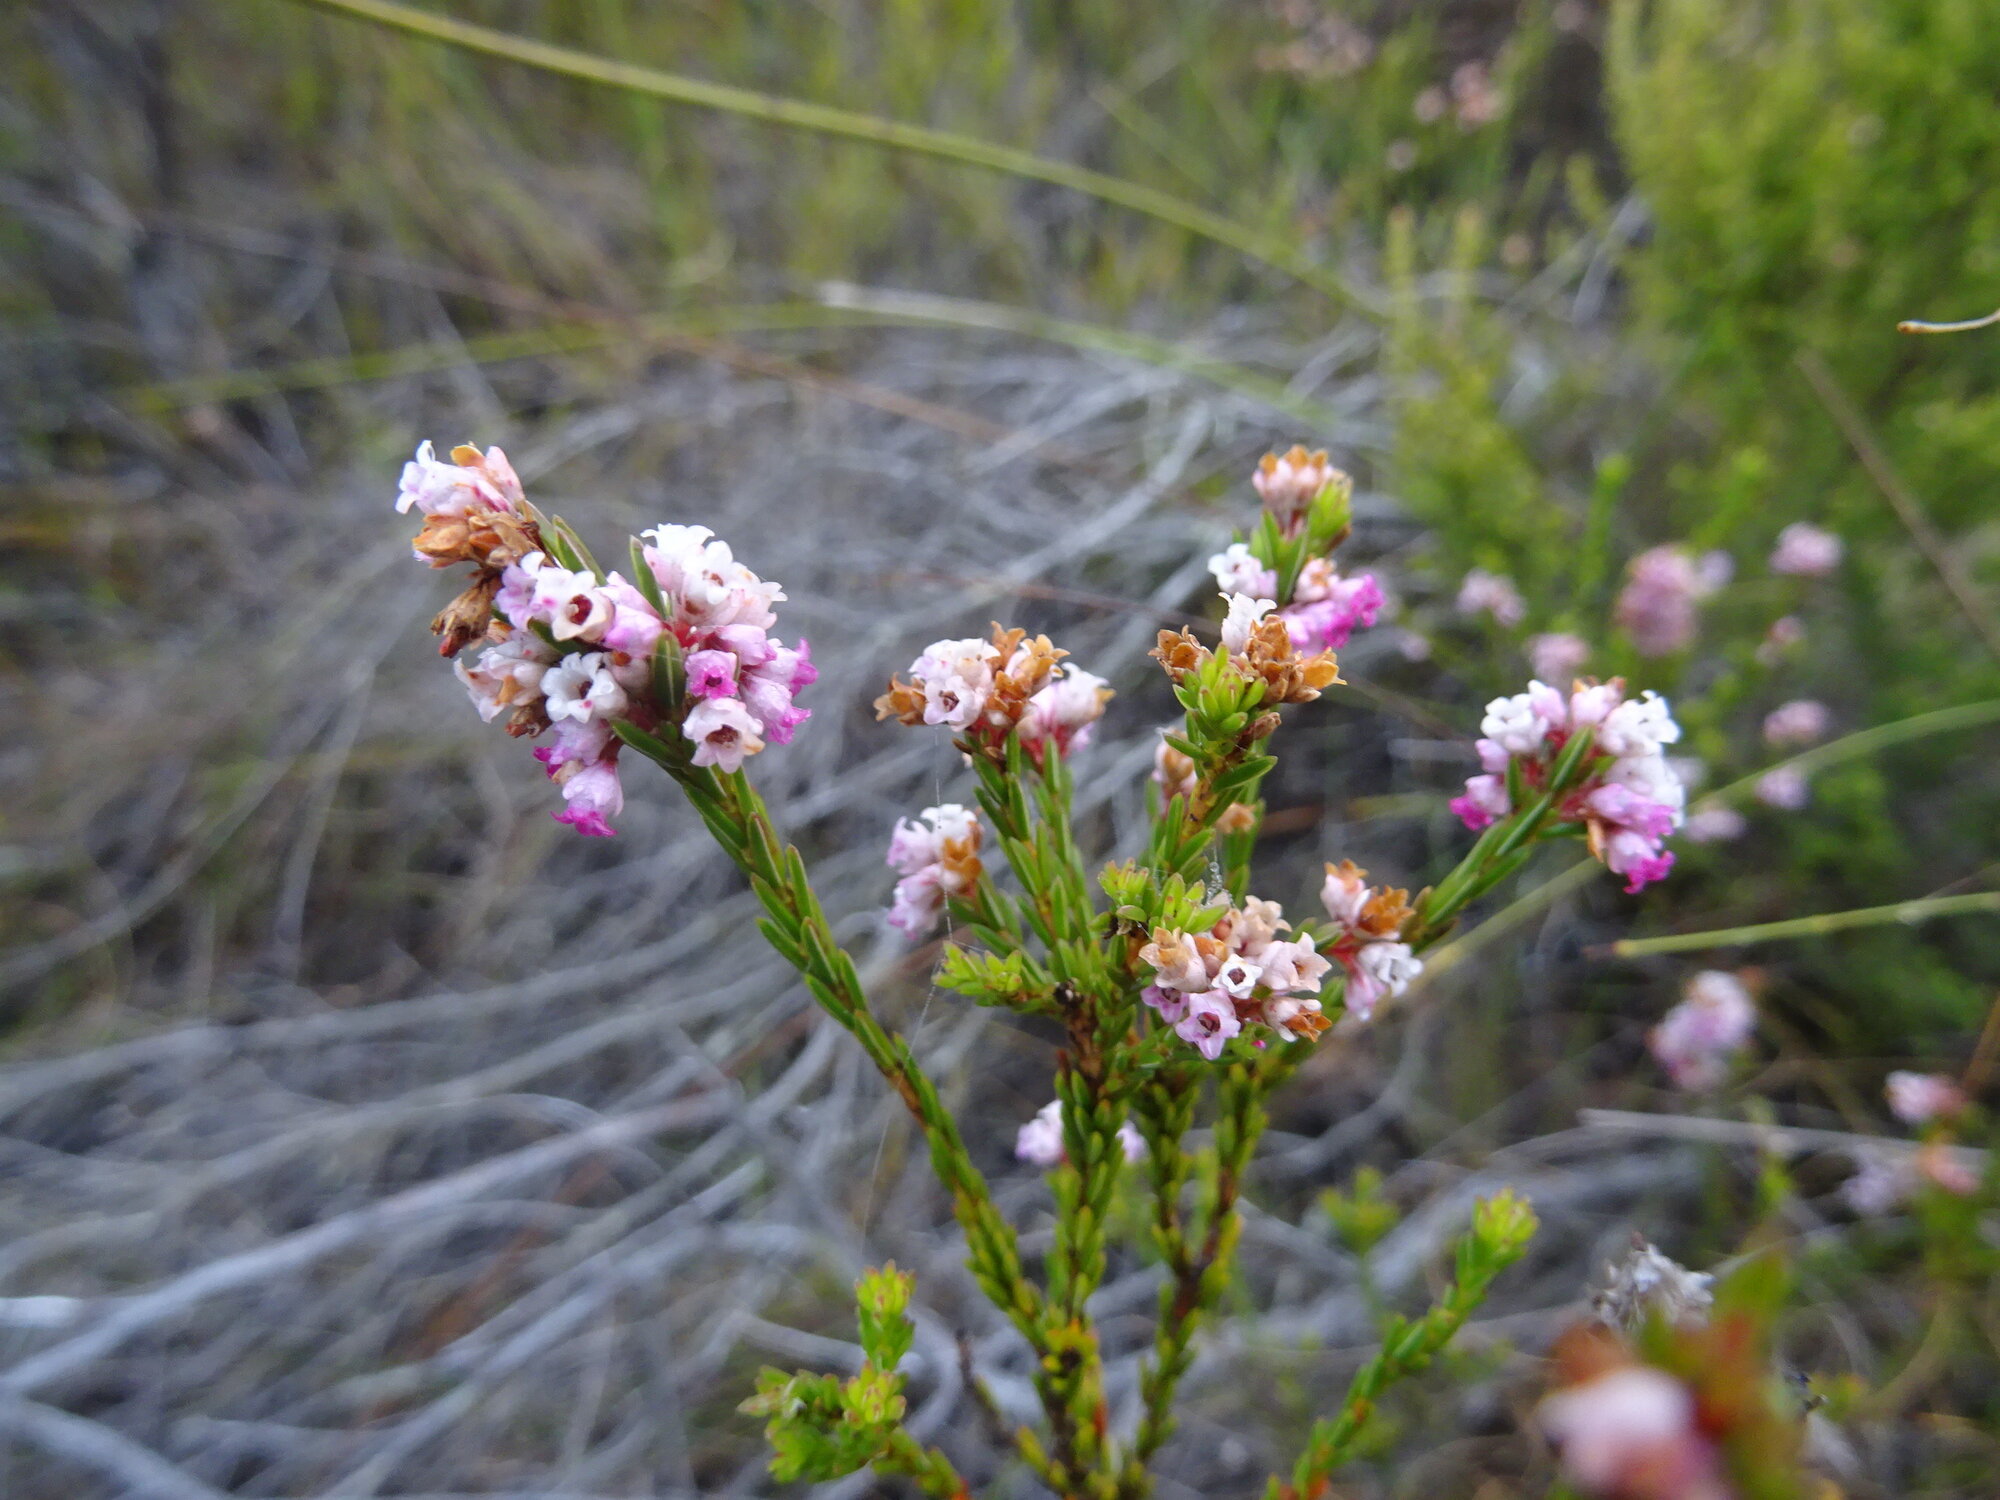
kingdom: Plantae
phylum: Tracheophyta
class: Magnoliopsida
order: Ericales
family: Ericaceae
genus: Erica
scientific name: Erica articularis
